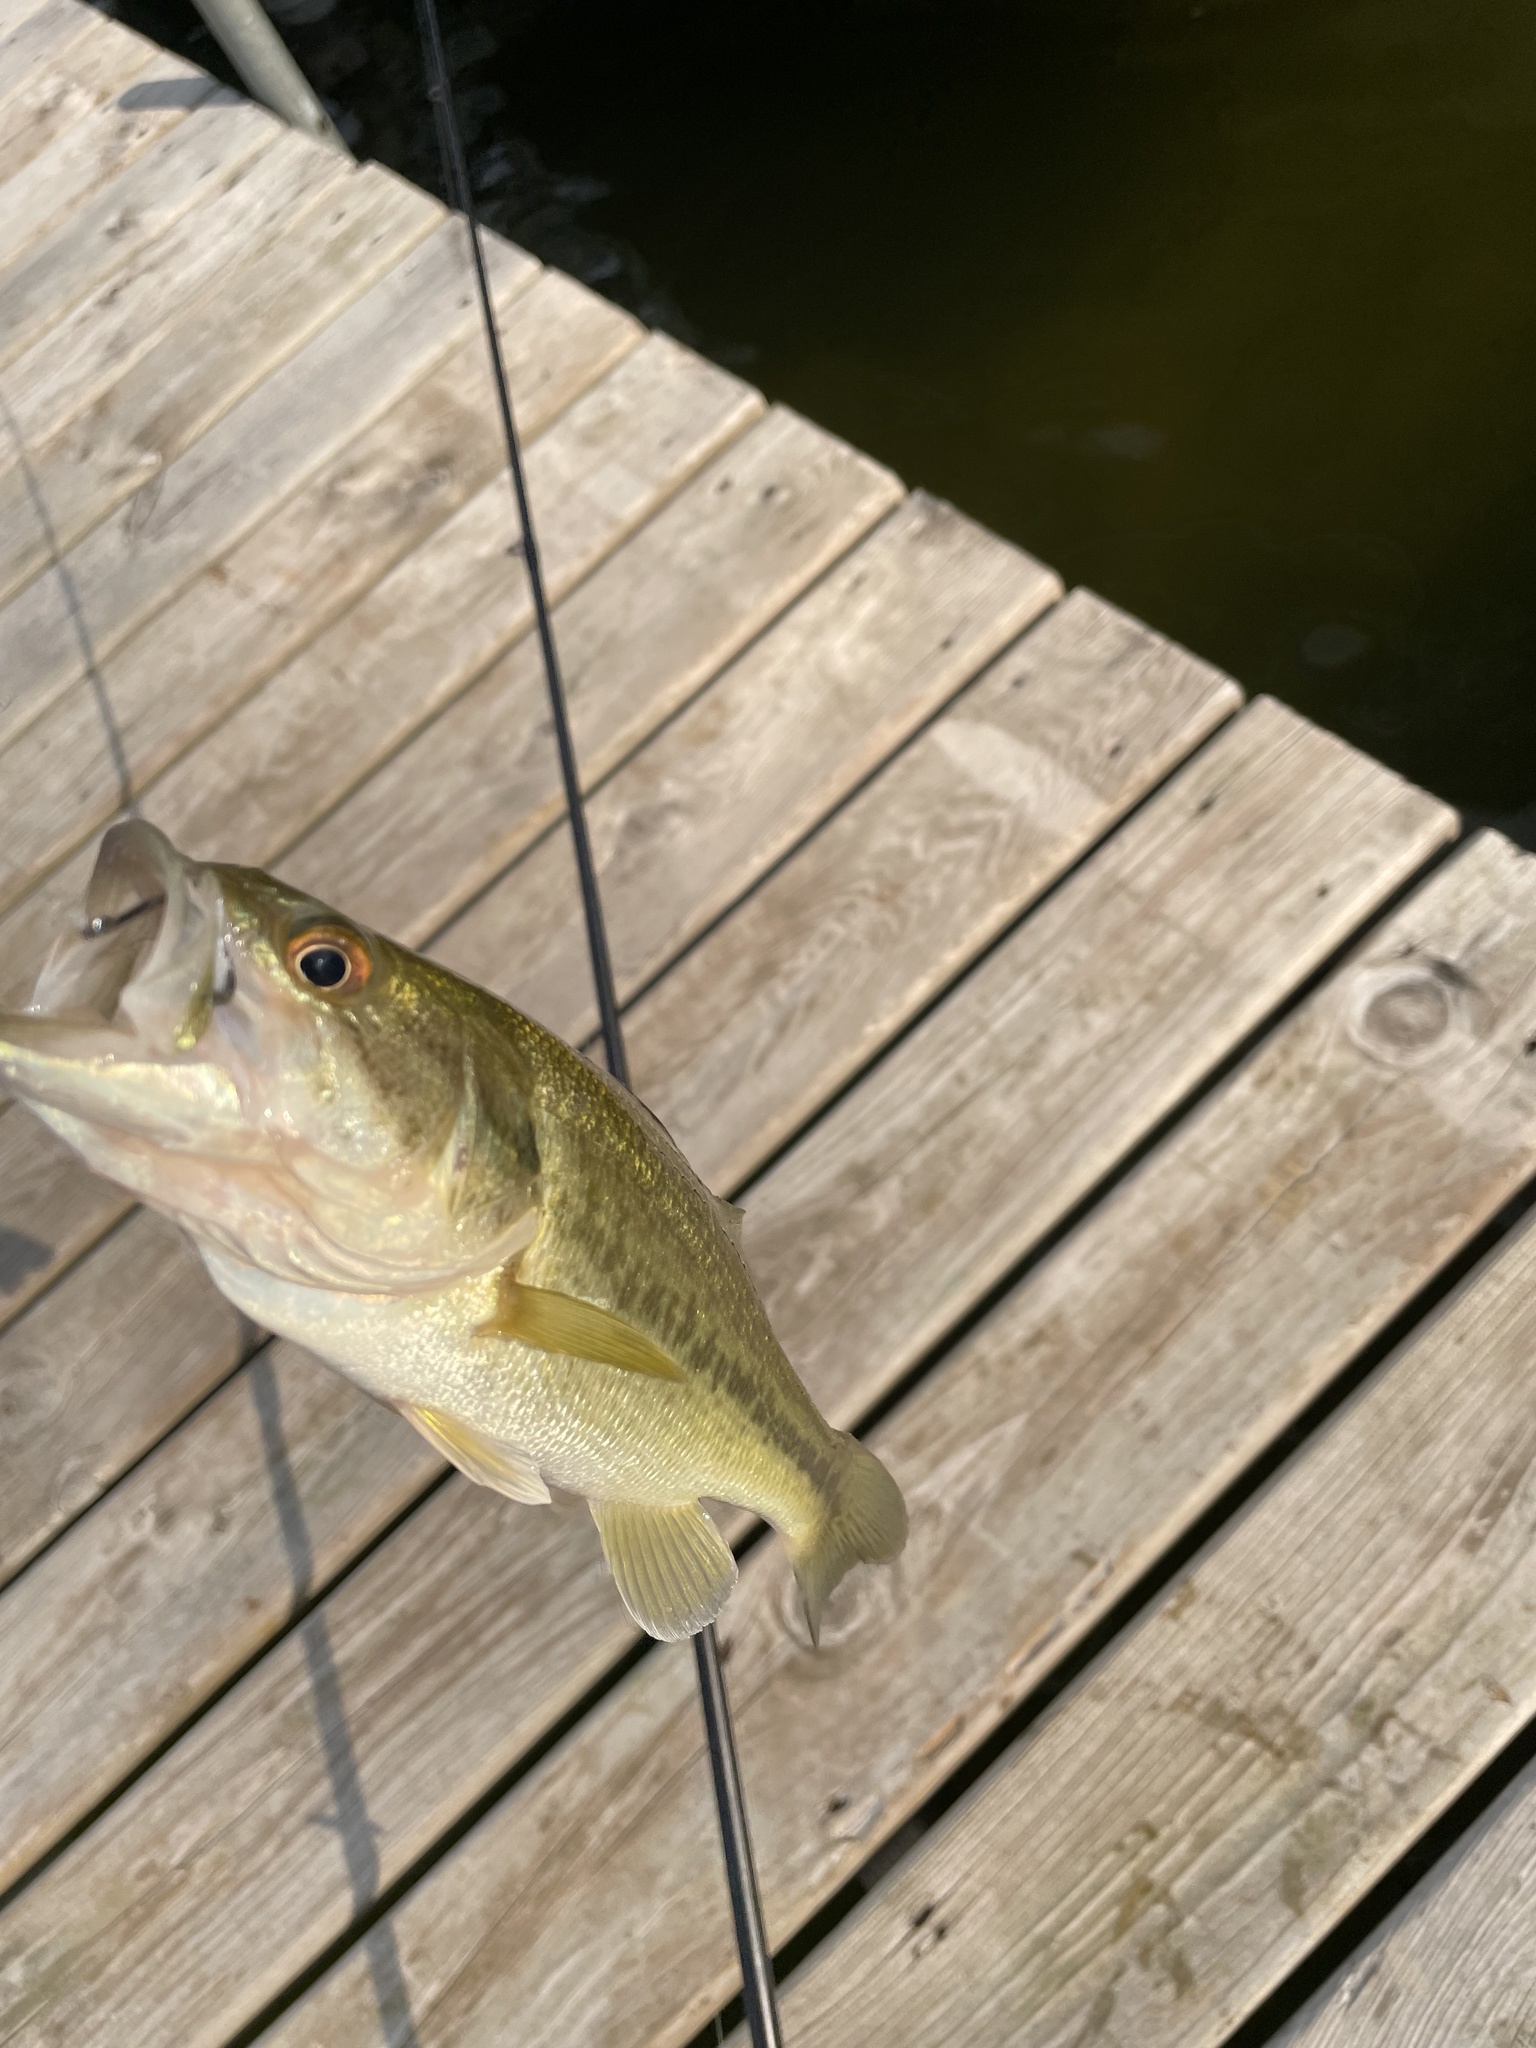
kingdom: Animalia
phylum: Chordata
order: Perciformes
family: Centrarchidae
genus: Micropterus
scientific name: Micropterus
